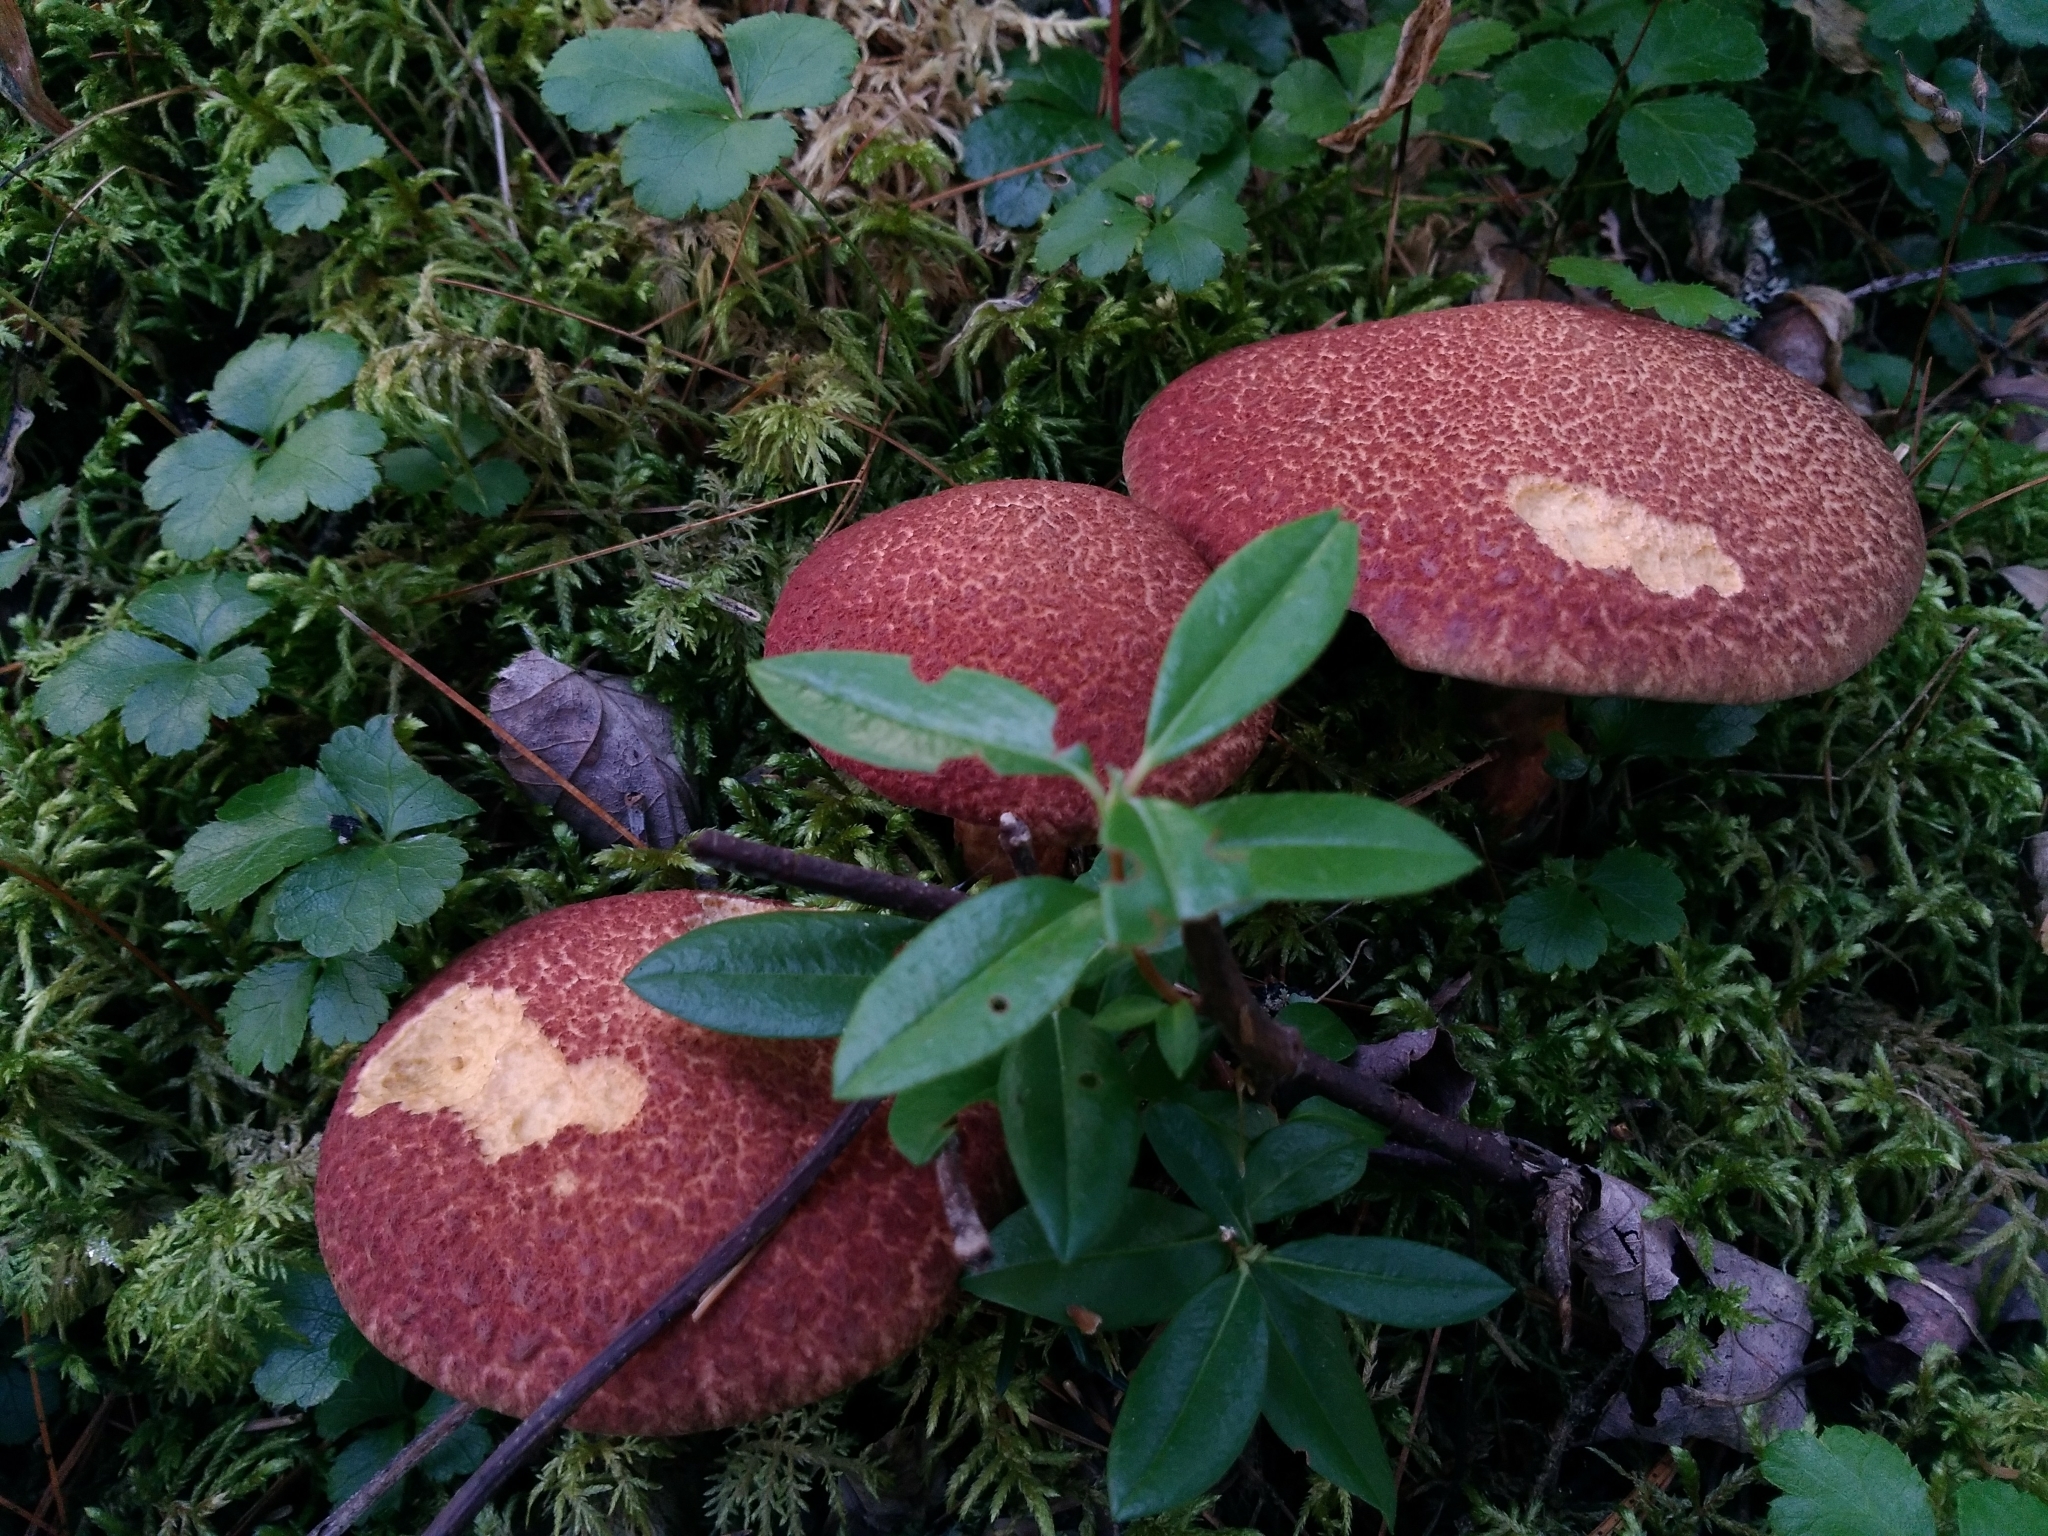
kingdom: Fungi
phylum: Basidiomycota
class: Agaricomycetes
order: Boletales
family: Suillaceae
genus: Suillus
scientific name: Suillus spraguei
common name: Painted suillus
